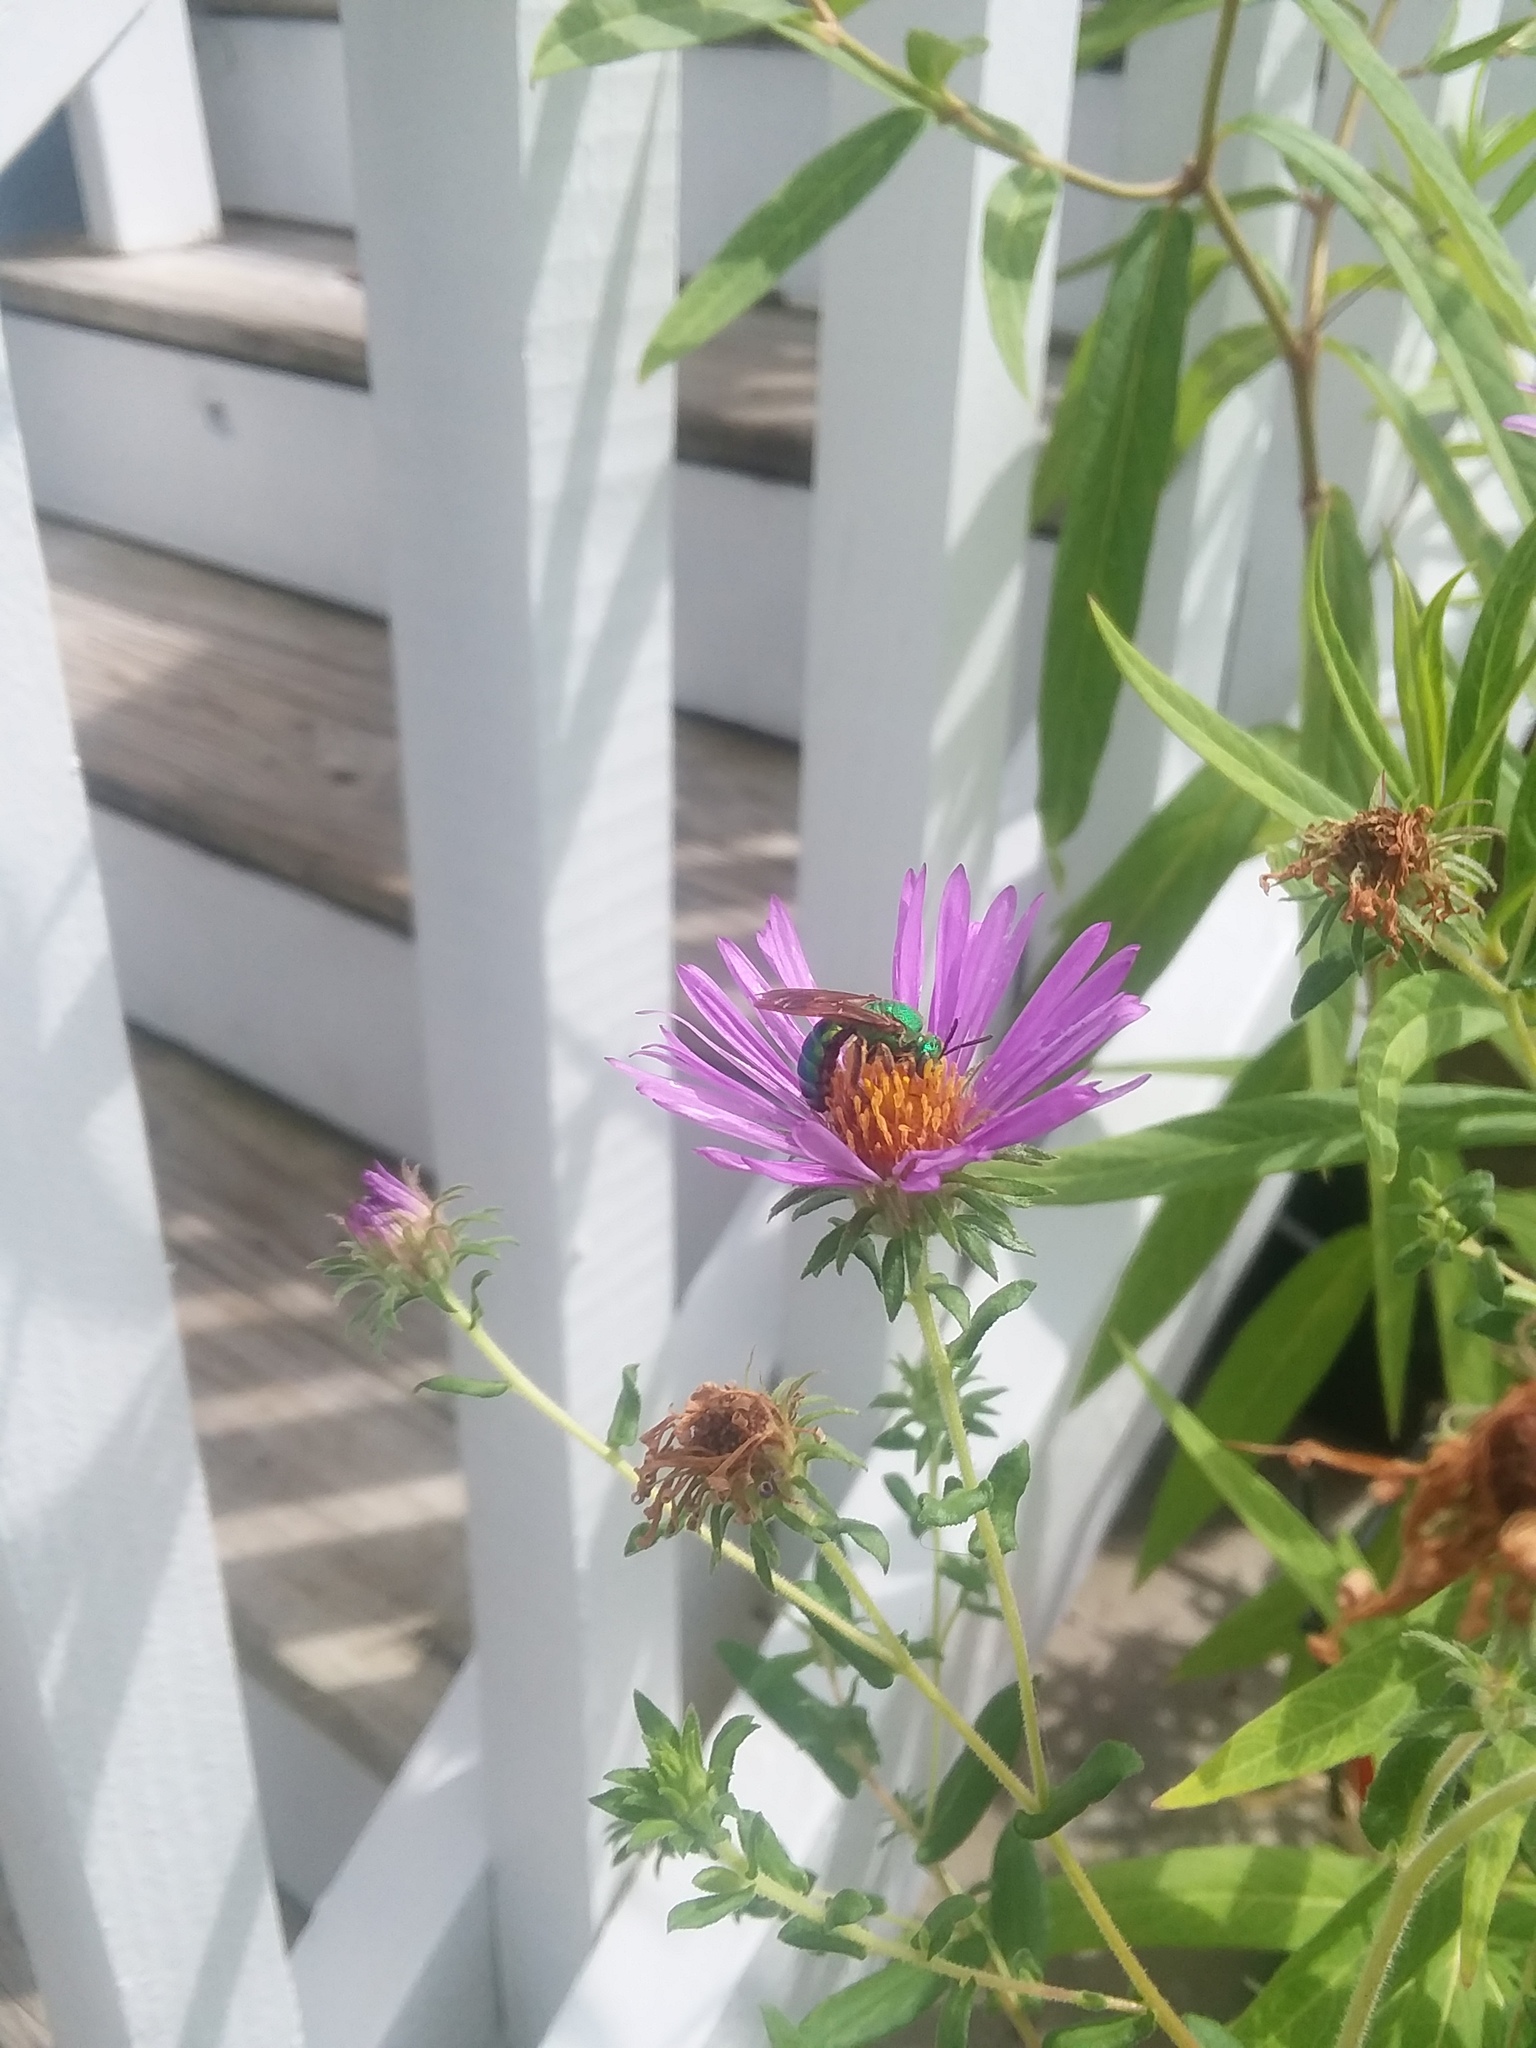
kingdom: Animalia
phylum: Arthropoda
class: Insecta
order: Hymenoptera
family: Halictidae
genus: Agapostemon
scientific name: Agapostemon splendens
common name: Brown-winged striped sweat bee
